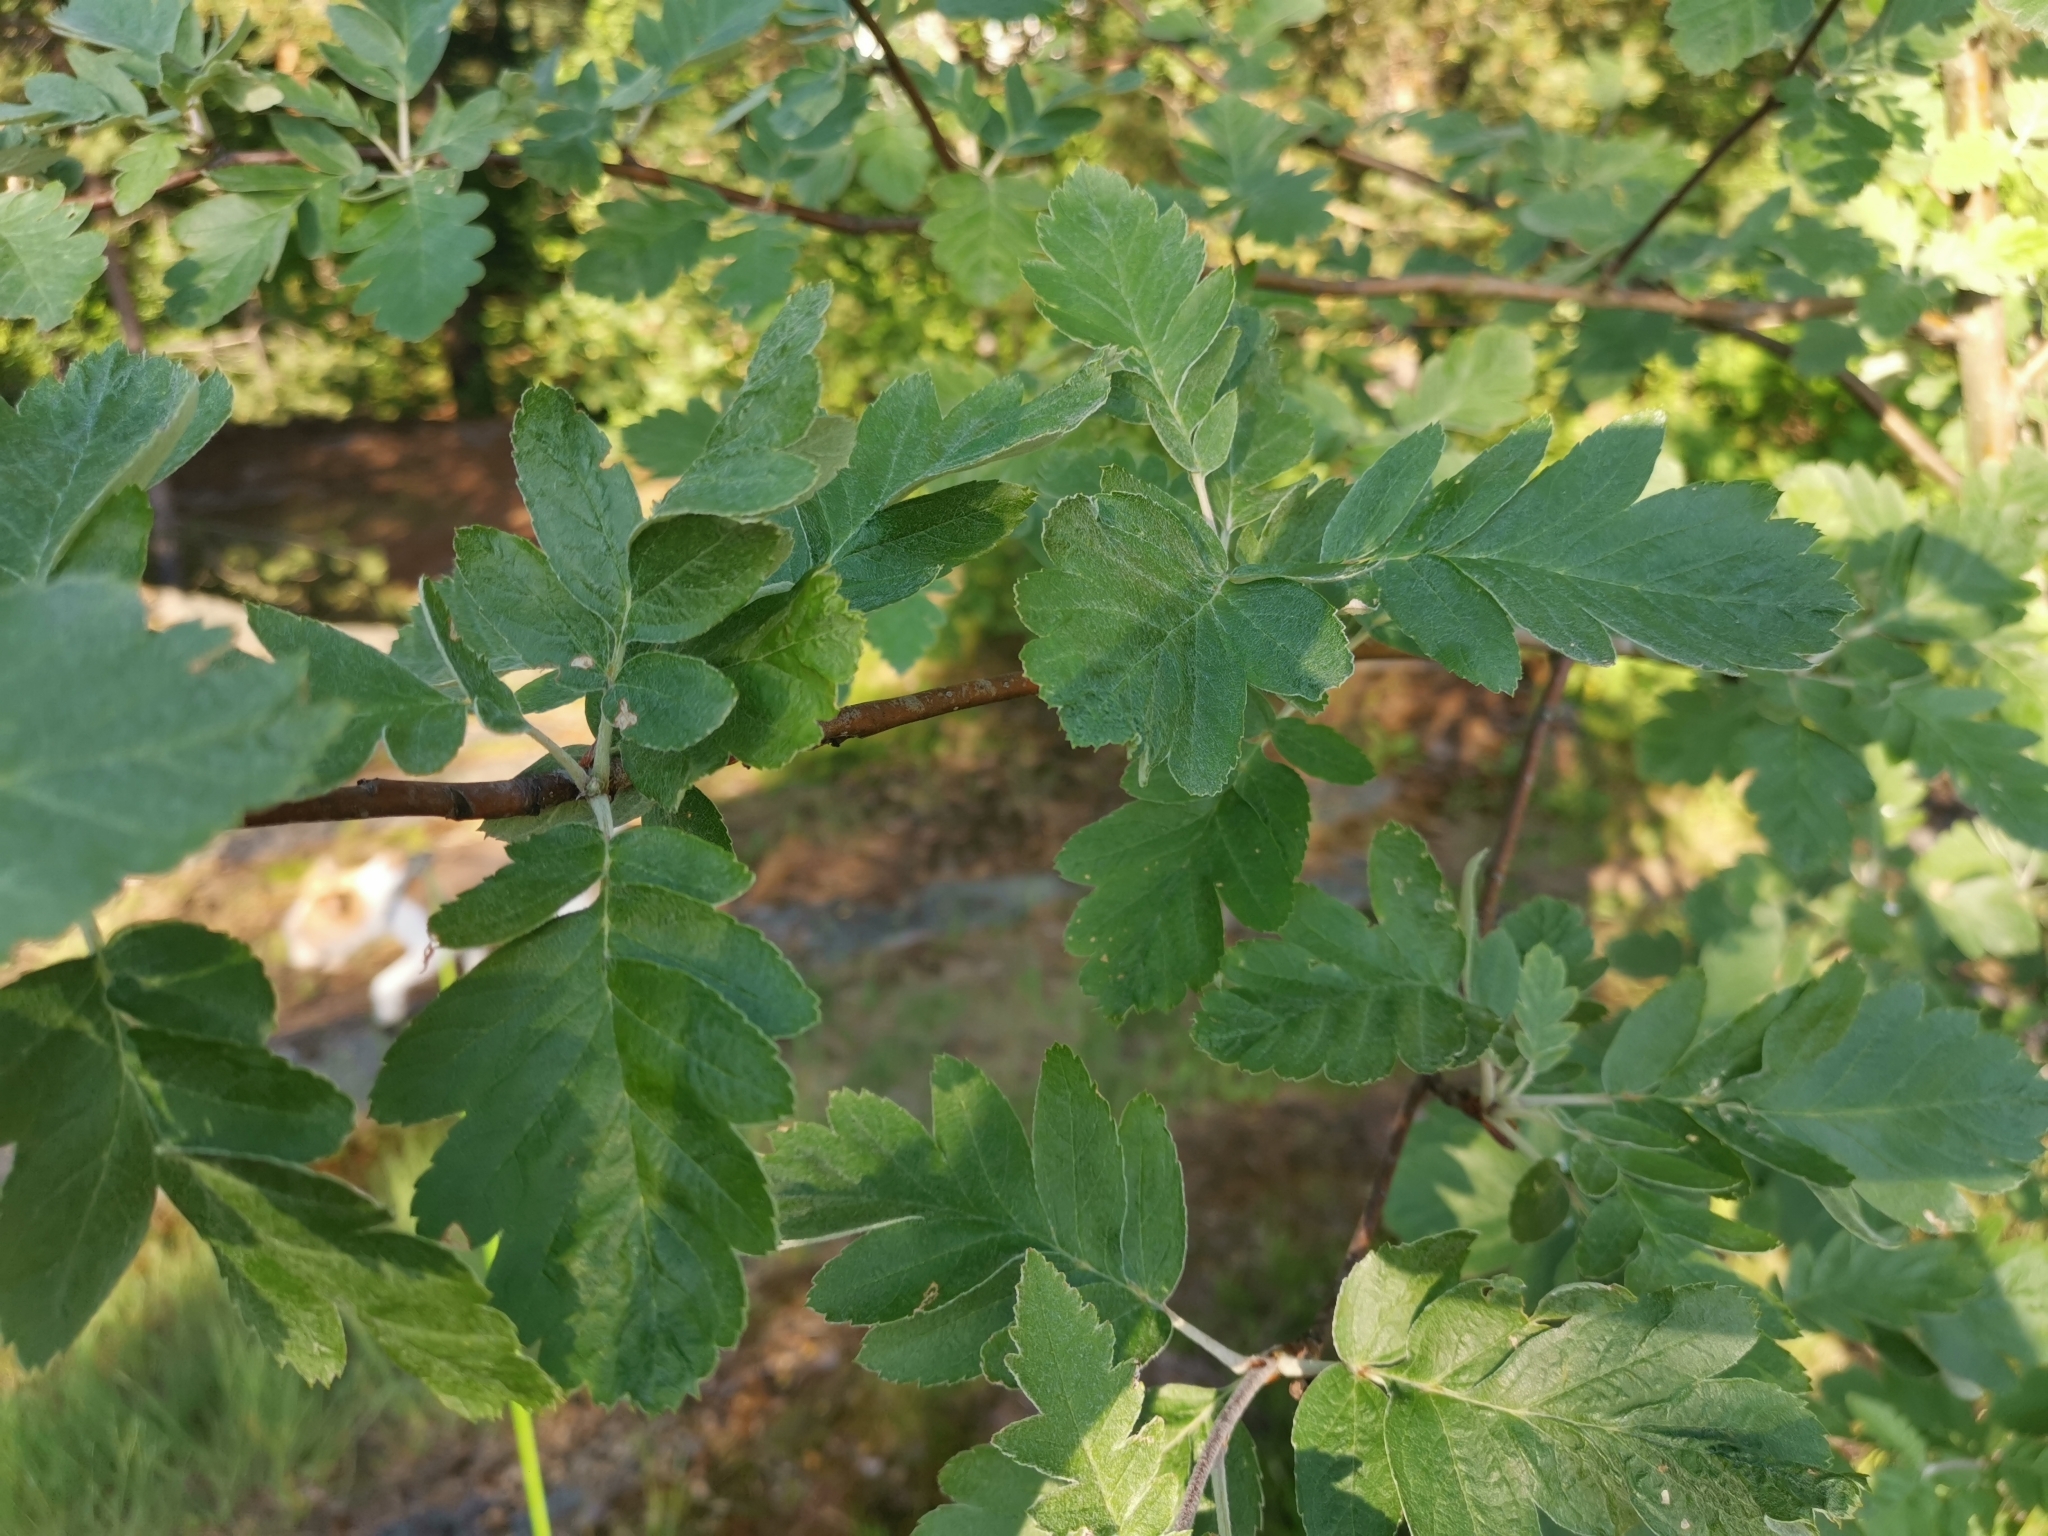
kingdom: Plantae
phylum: Tracheophyta
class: Magnoliopsida
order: Rosales
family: Rosaceae
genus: Hedlundia
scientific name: Hedlundia hybrida
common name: Swedish service-tree
